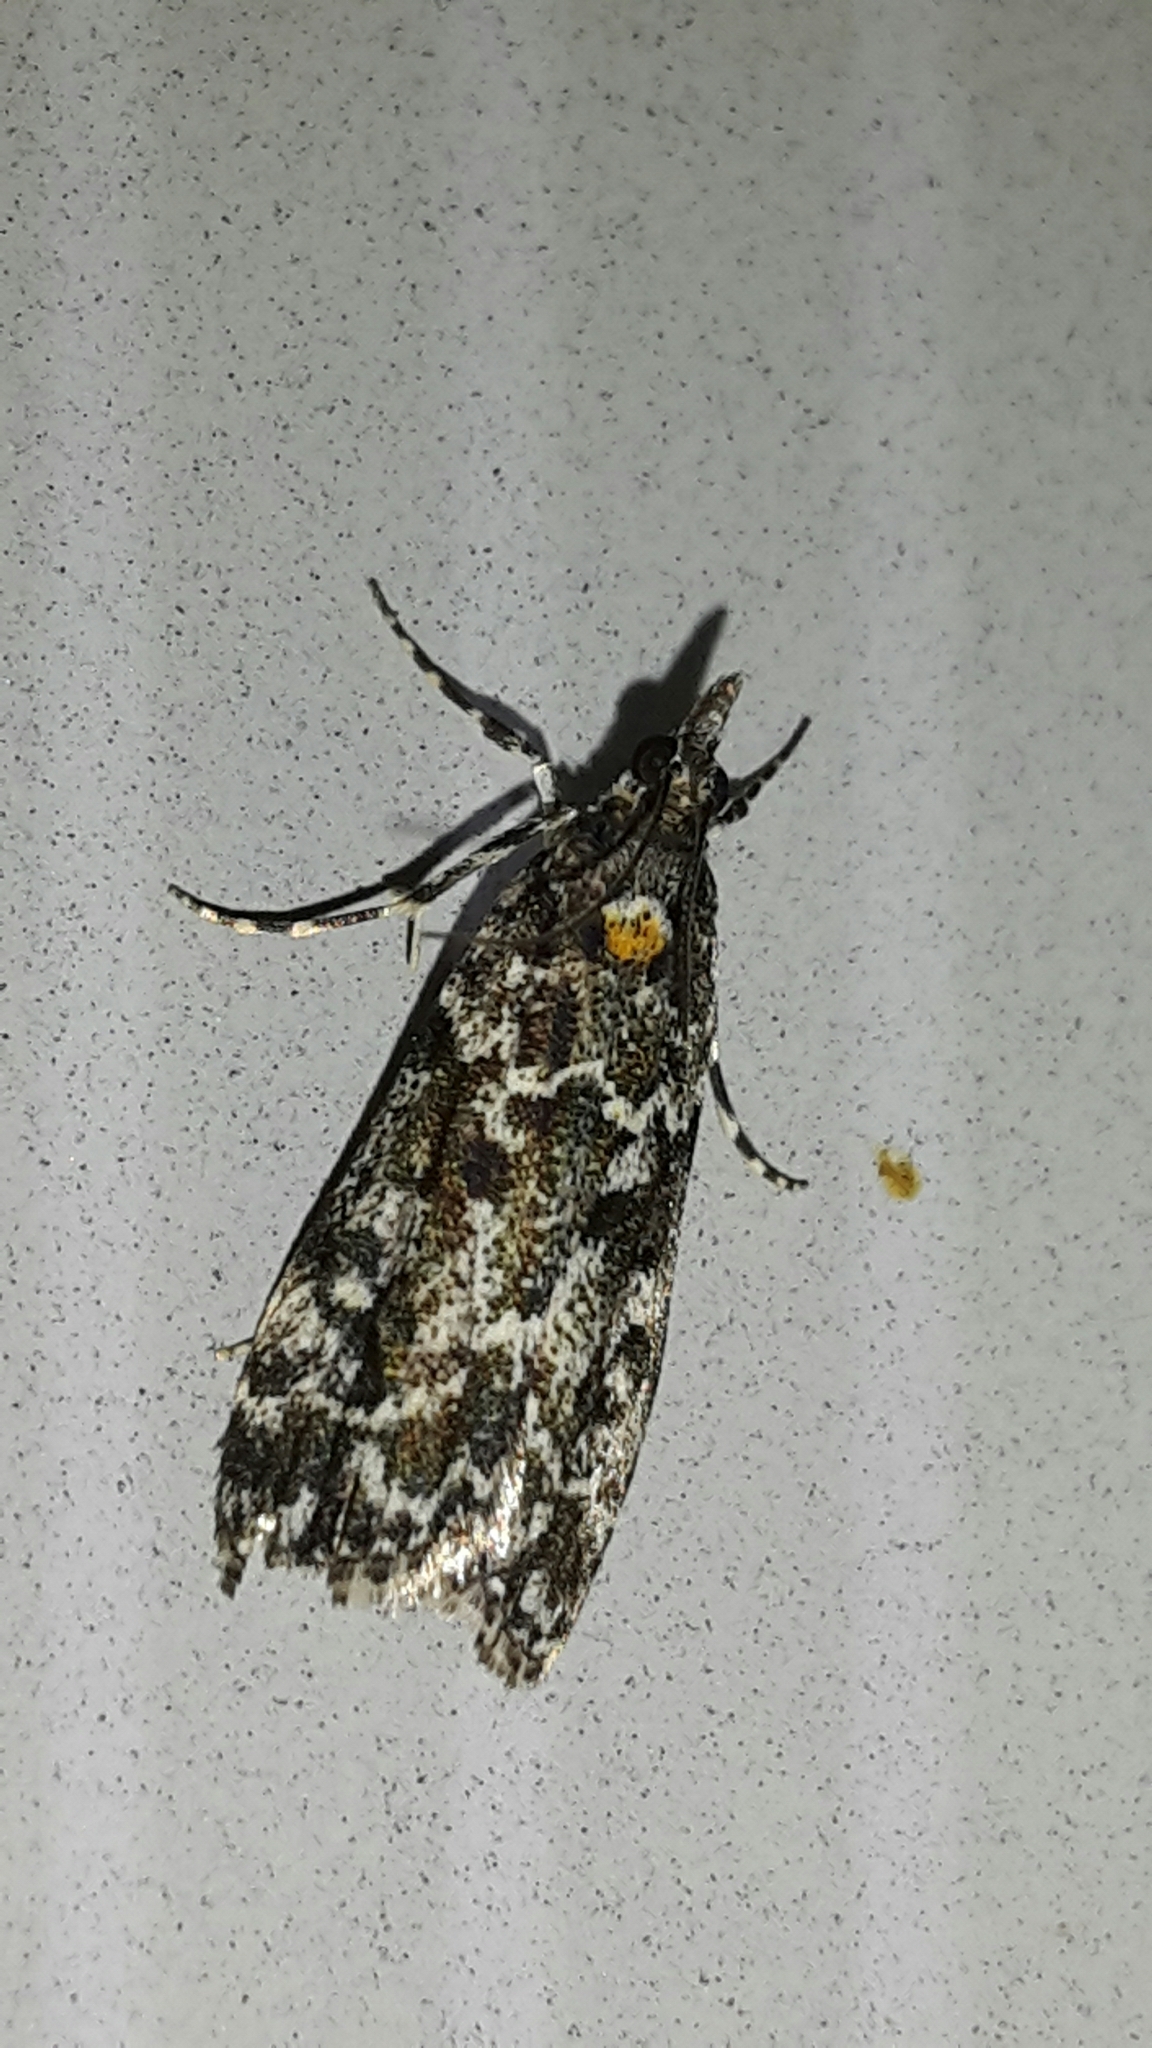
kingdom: Animalia
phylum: Arthropoda
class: Insecta
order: Lepidoptera
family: Crambidae
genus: Eudonia
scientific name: Eudonia
